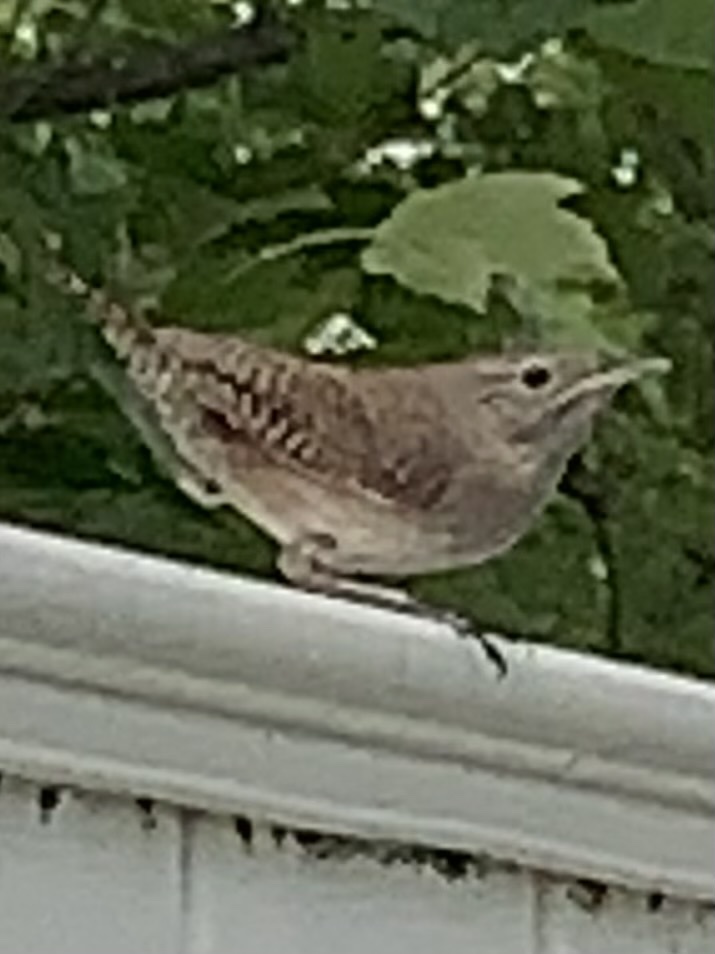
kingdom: Animalia
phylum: Chordata
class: Aves
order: Passeriformes
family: Troglodytidae
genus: Troglodytes
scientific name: Troglodytes aedon
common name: House wren
